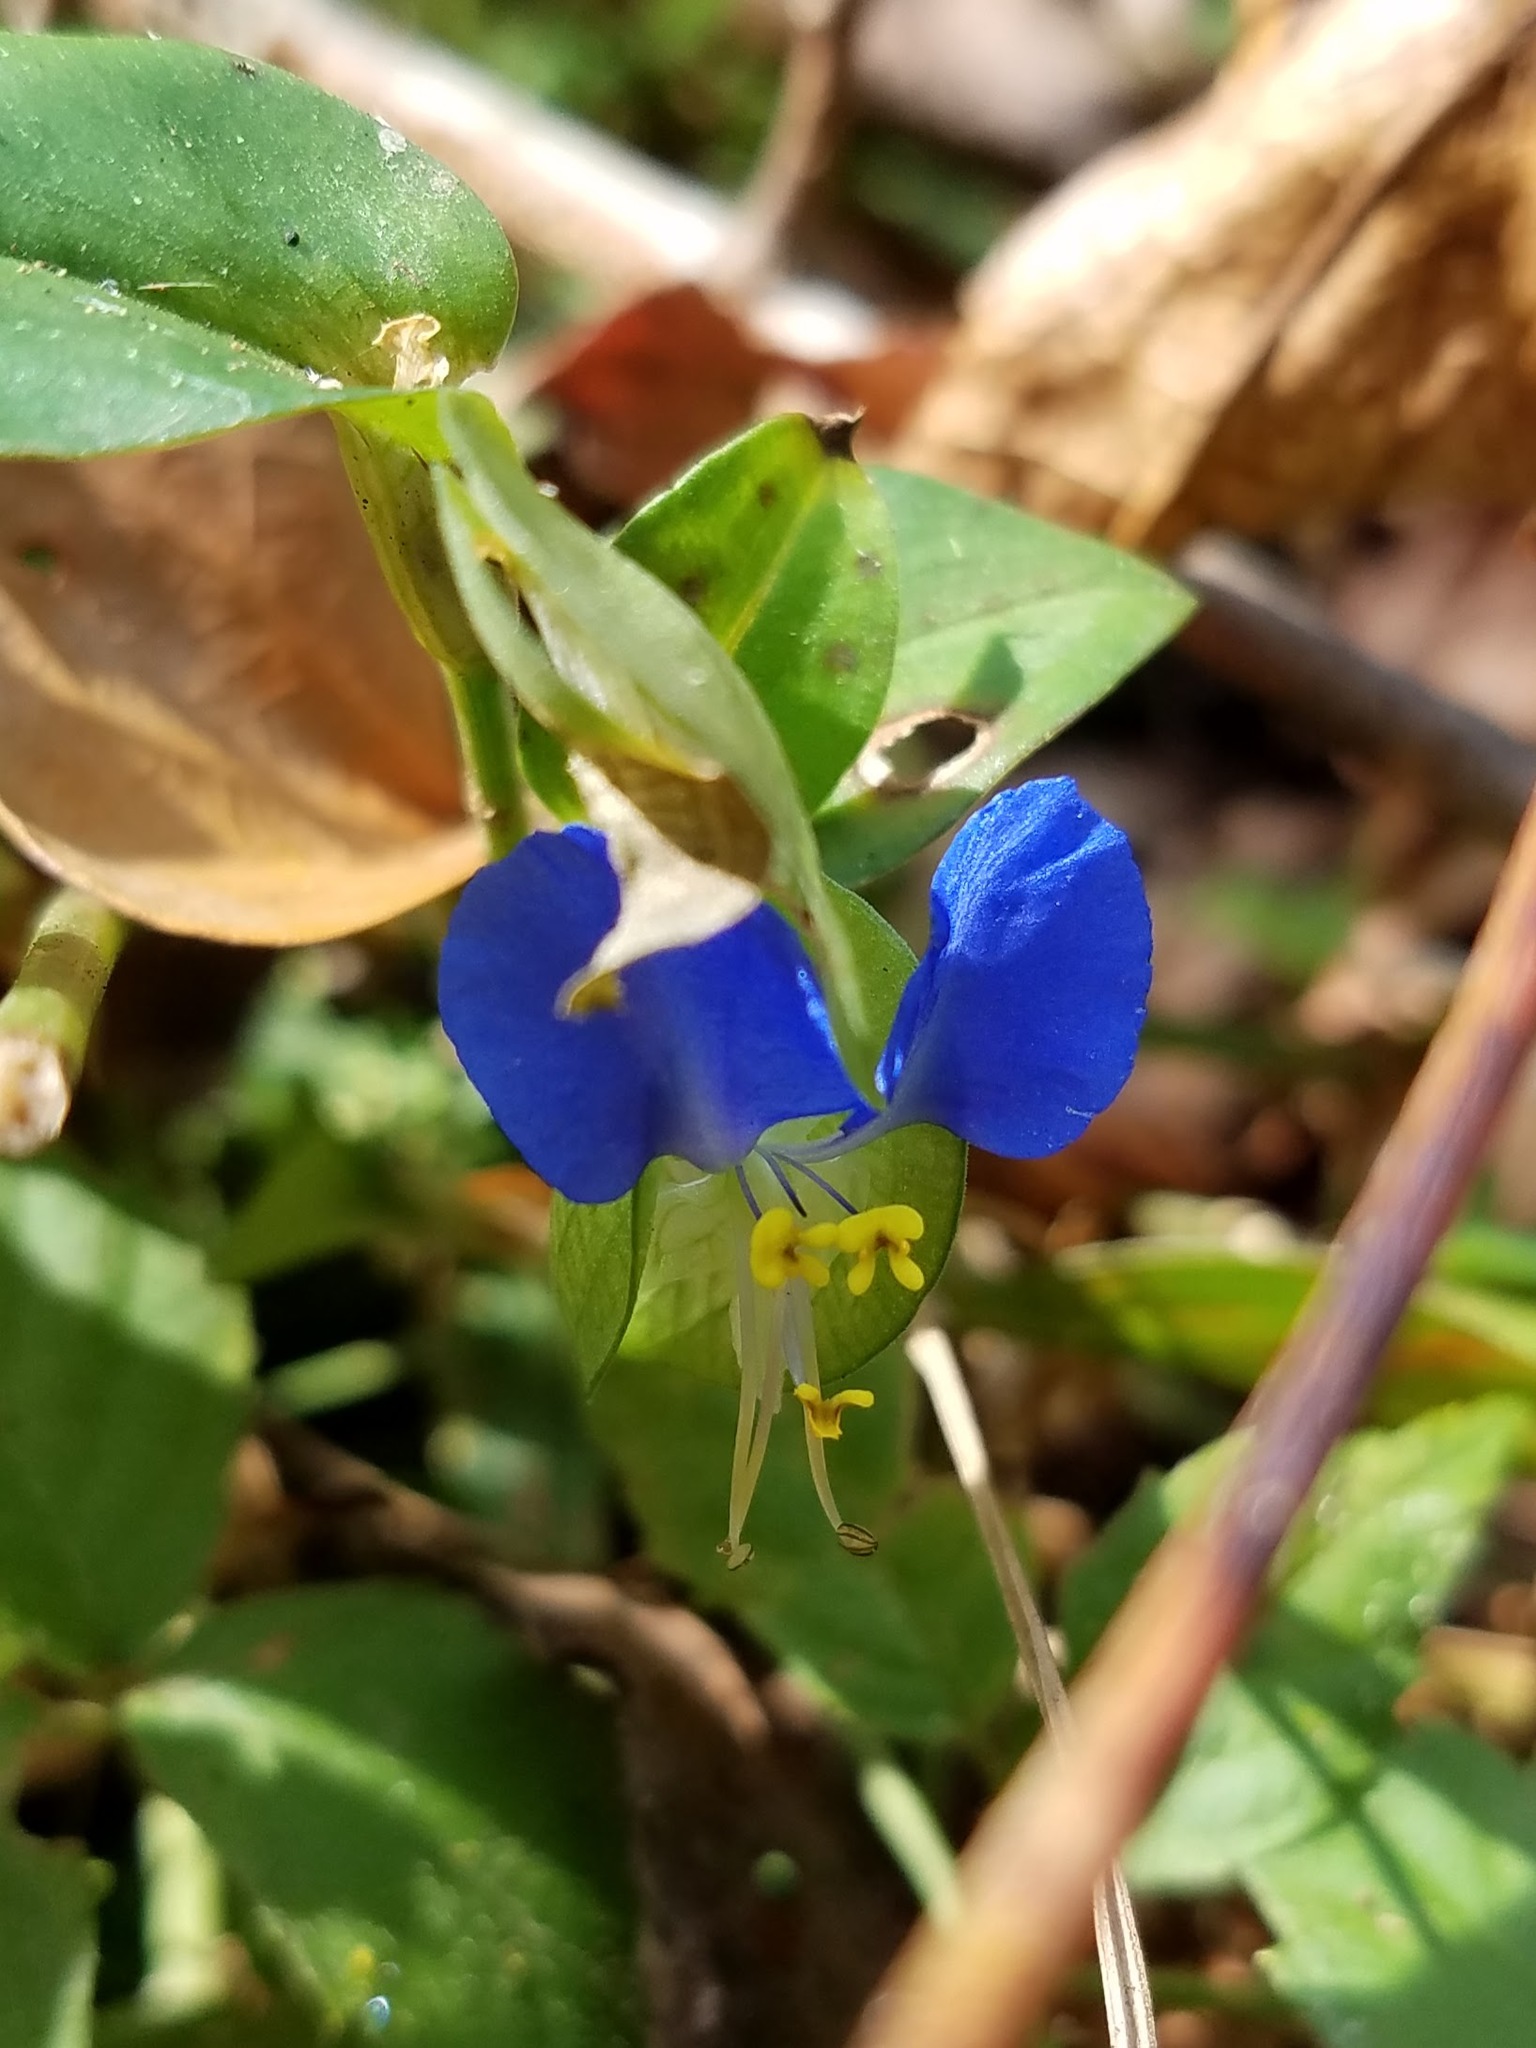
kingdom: Plantae
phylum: Tracheophyta
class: Liliopsida
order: Commelinales
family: Commelinaceae
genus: Commelina
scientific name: Commelina communis
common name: Asiatic dayflower
